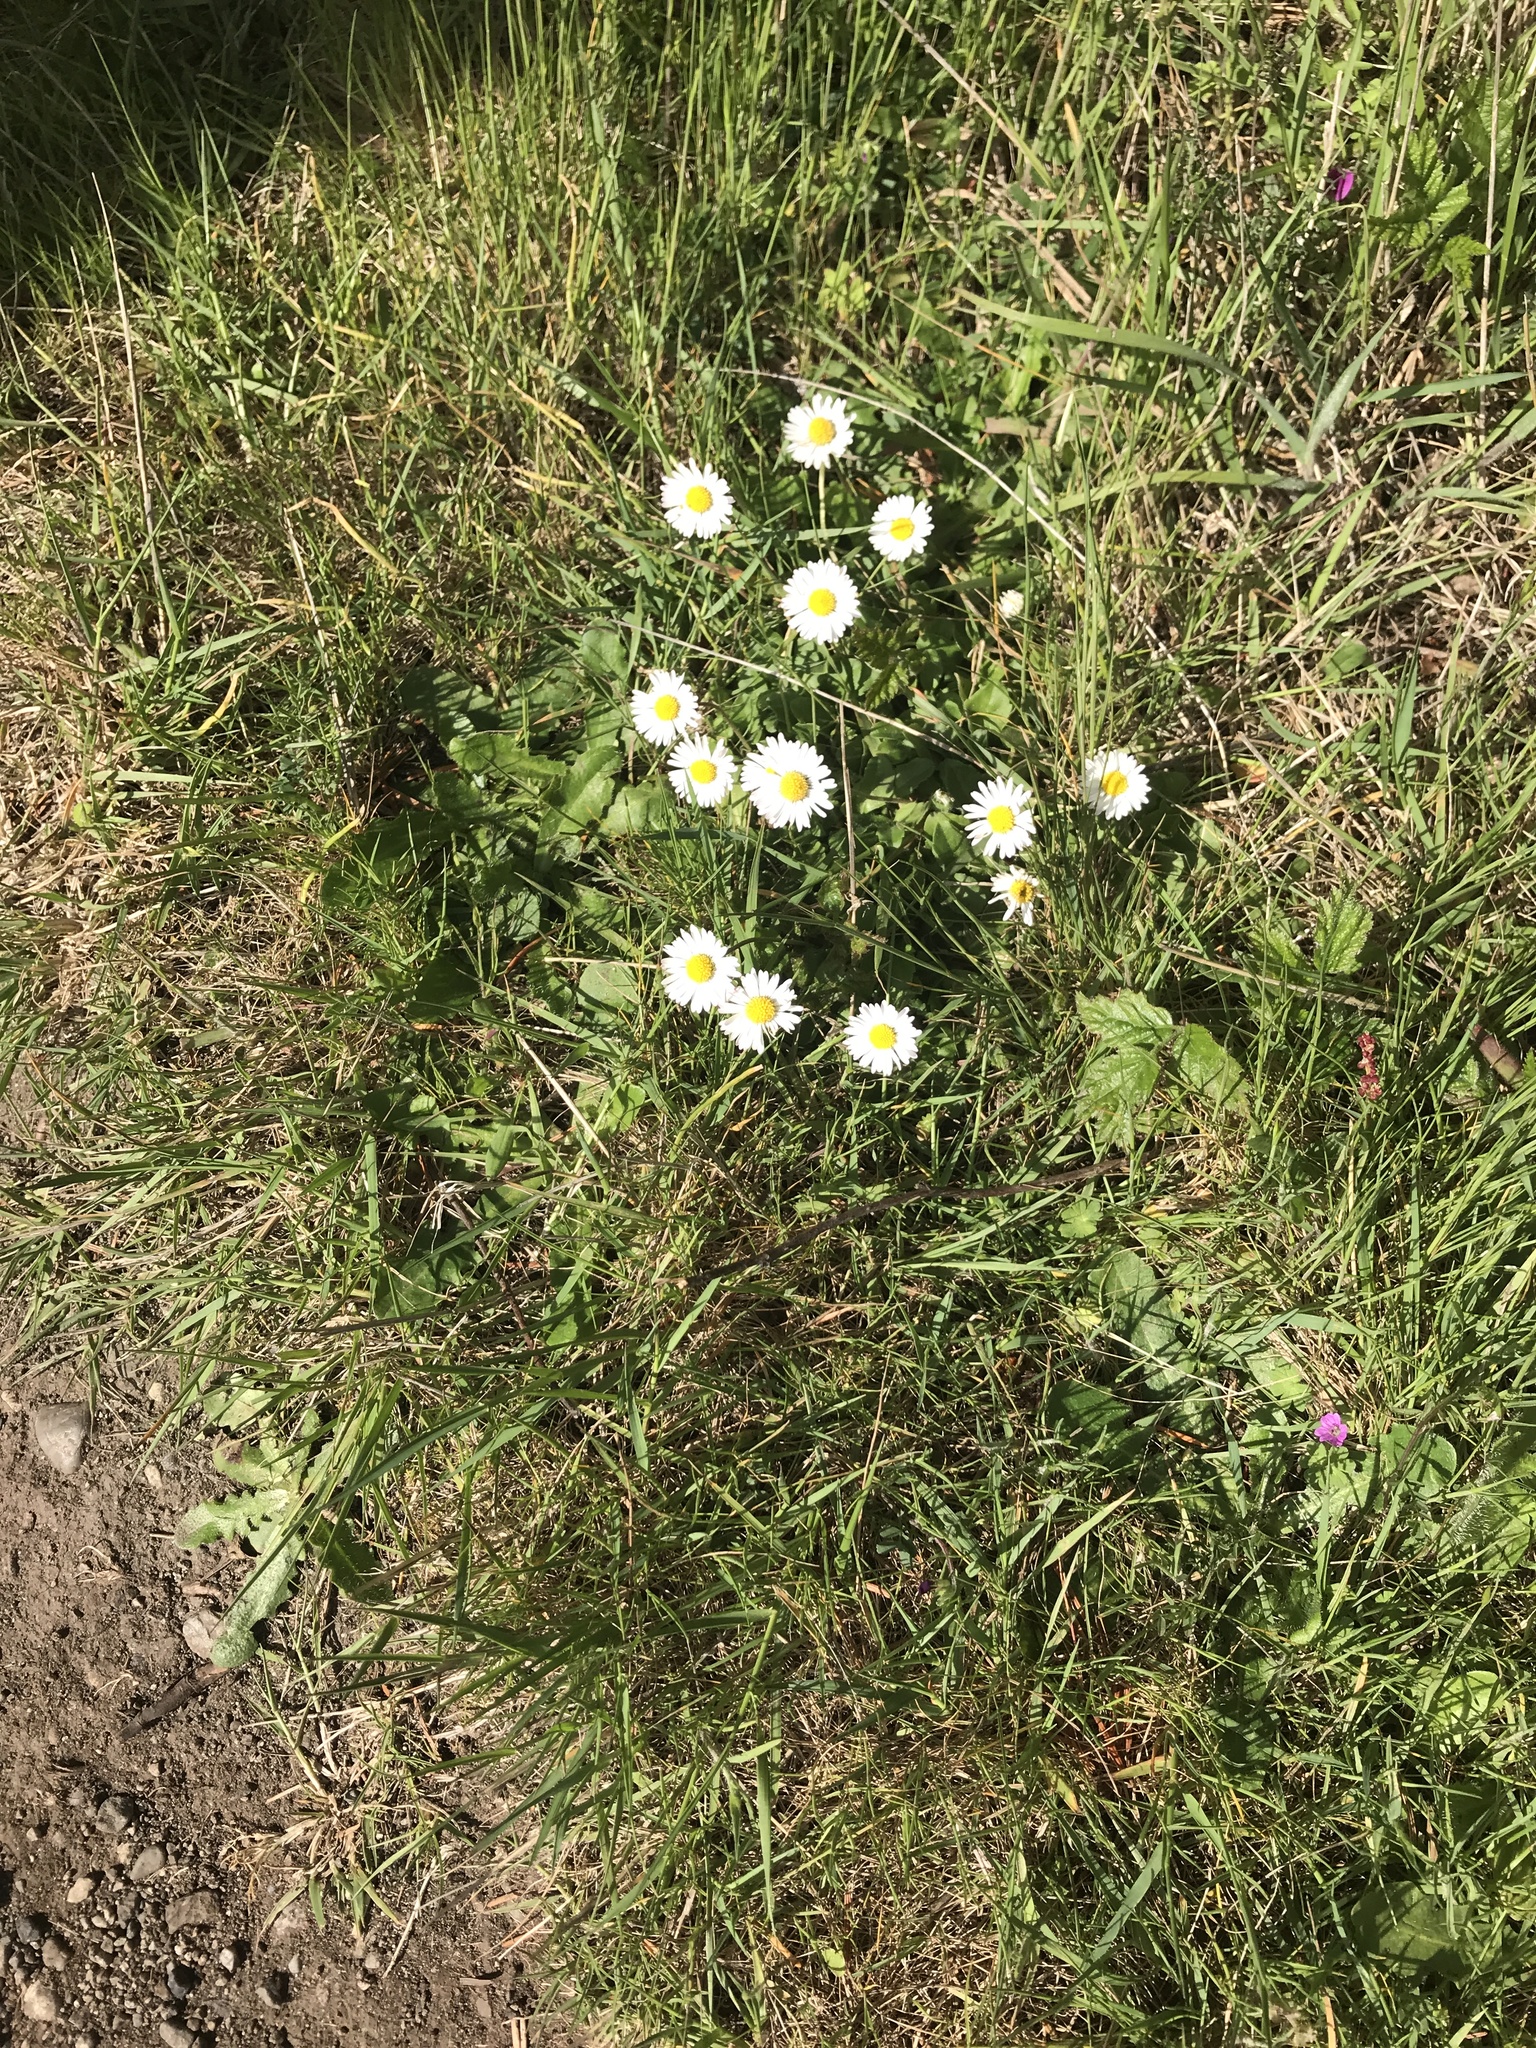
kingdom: Plantae
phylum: Tracheophyta
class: Magnoliopsida
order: Asterales
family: Asteraceae
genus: Bellis
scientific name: Bellis perennis
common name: Lawndaisy
